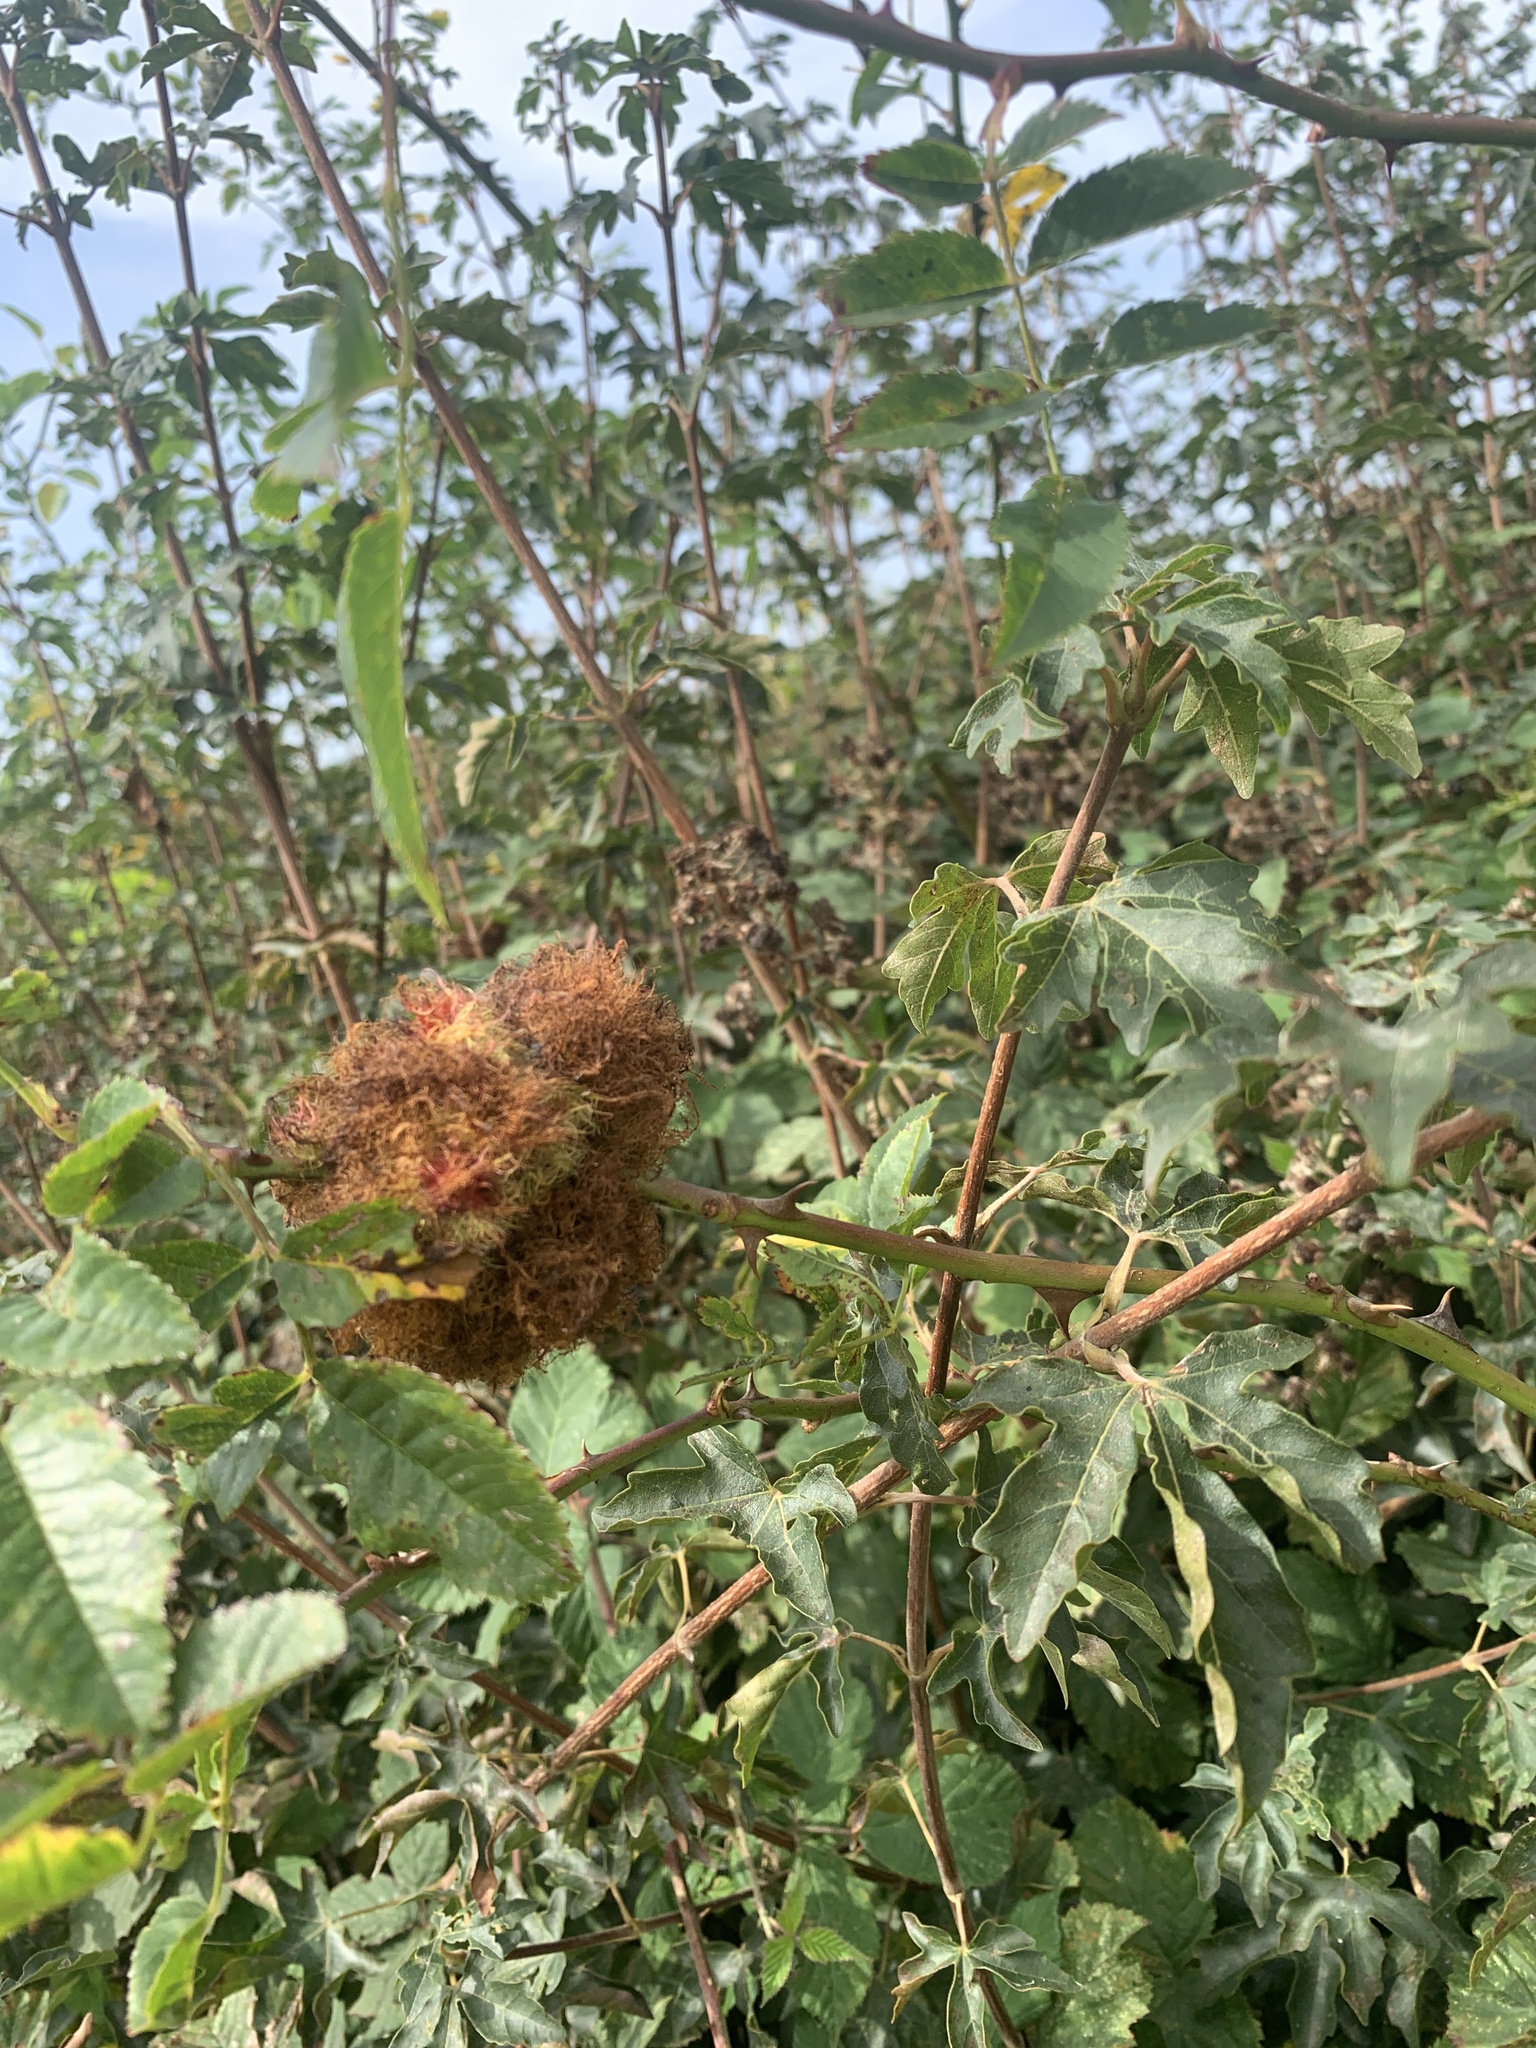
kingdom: Animalia
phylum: Arthropoda
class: Insecta
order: Hymenoptera
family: Cynipidae
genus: Diplolepis
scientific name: Diplolepis rosae
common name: Bedeguar gall
